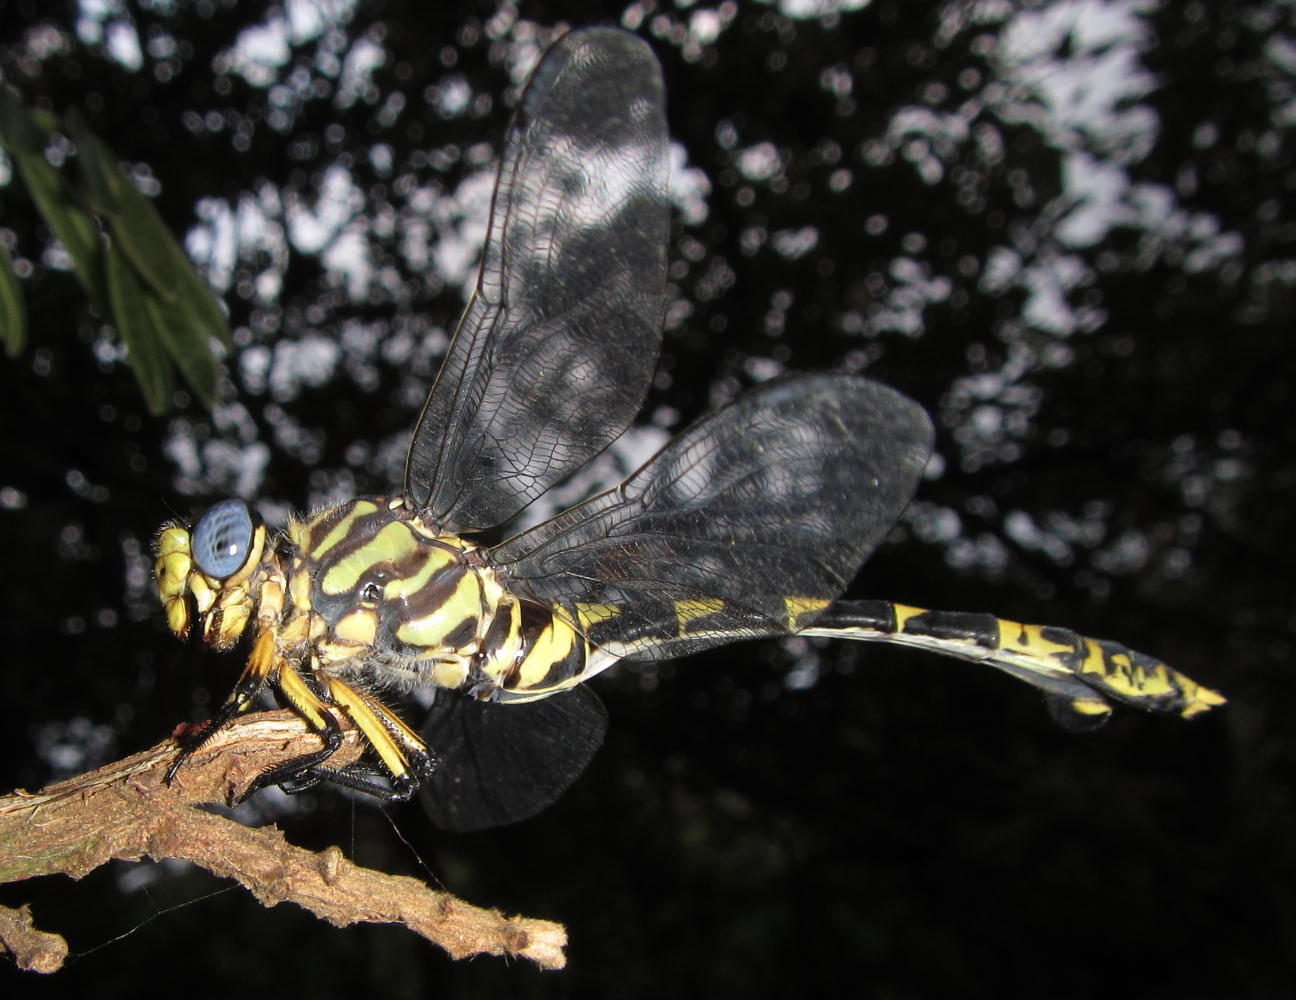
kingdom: Animalia
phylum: Arthropoda
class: Insecta
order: Odonata
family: Gomphidae
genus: Ictinogomphus
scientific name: Ictinogomphus ferox
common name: Common tiger
